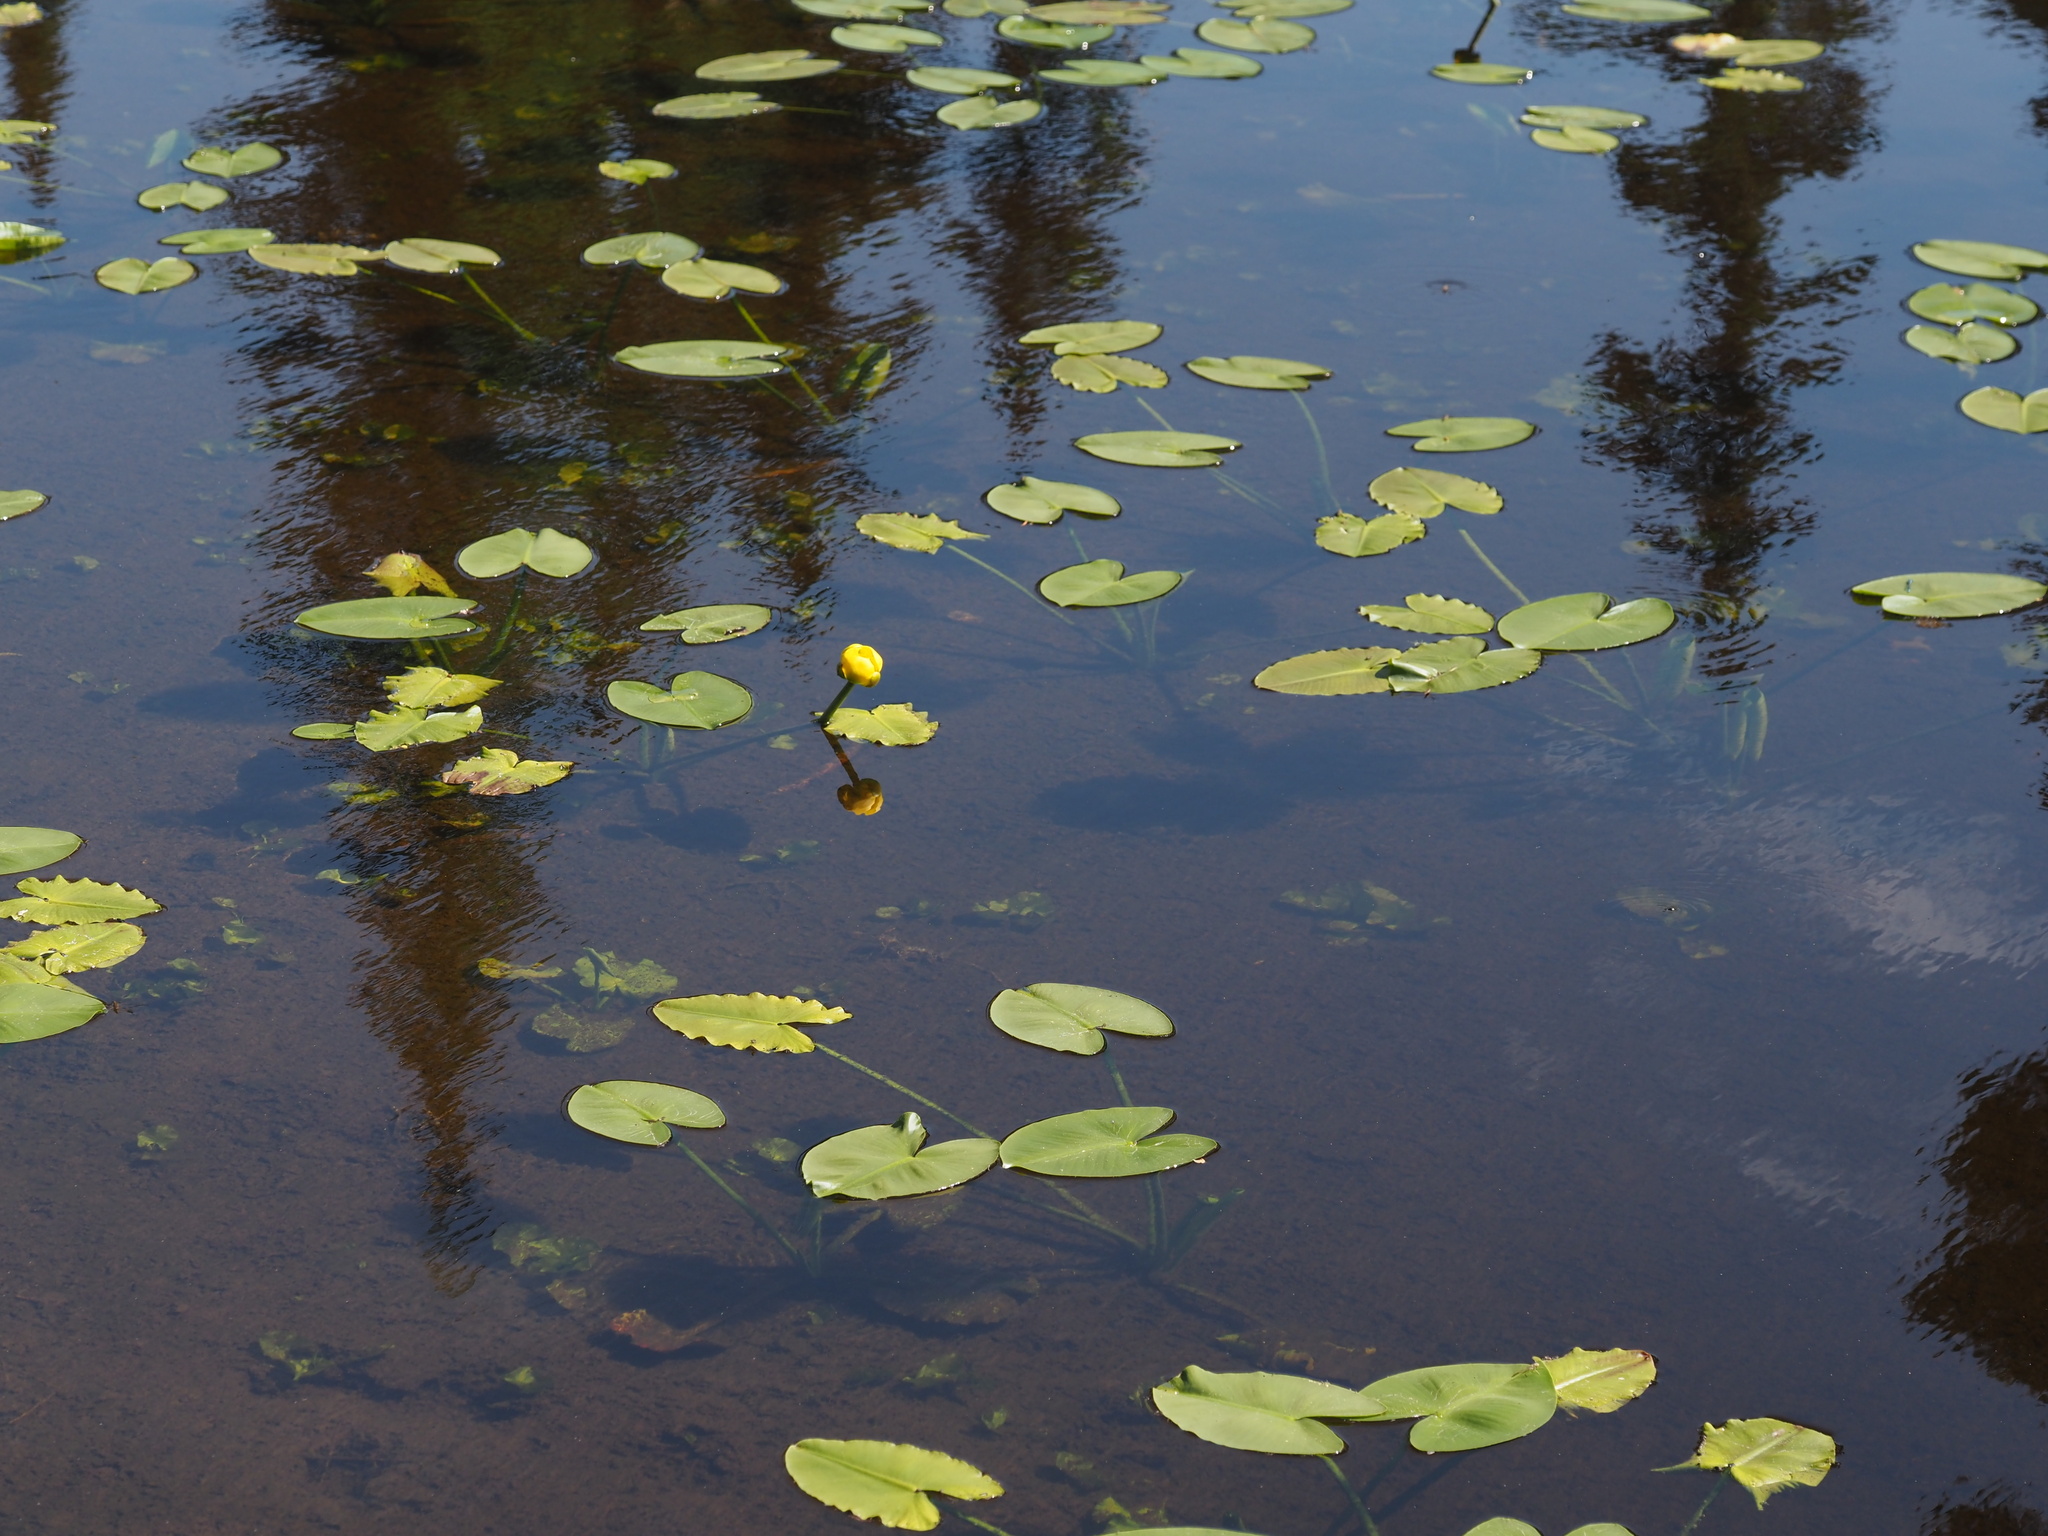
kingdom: Plantae
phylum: Tracheophyta
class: Magnoliopsida
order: Nymphaeales
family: Nymphaeaceae
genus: Nuphar
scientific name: Nuphar polysepala
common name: Rocky mountain cow-lily
